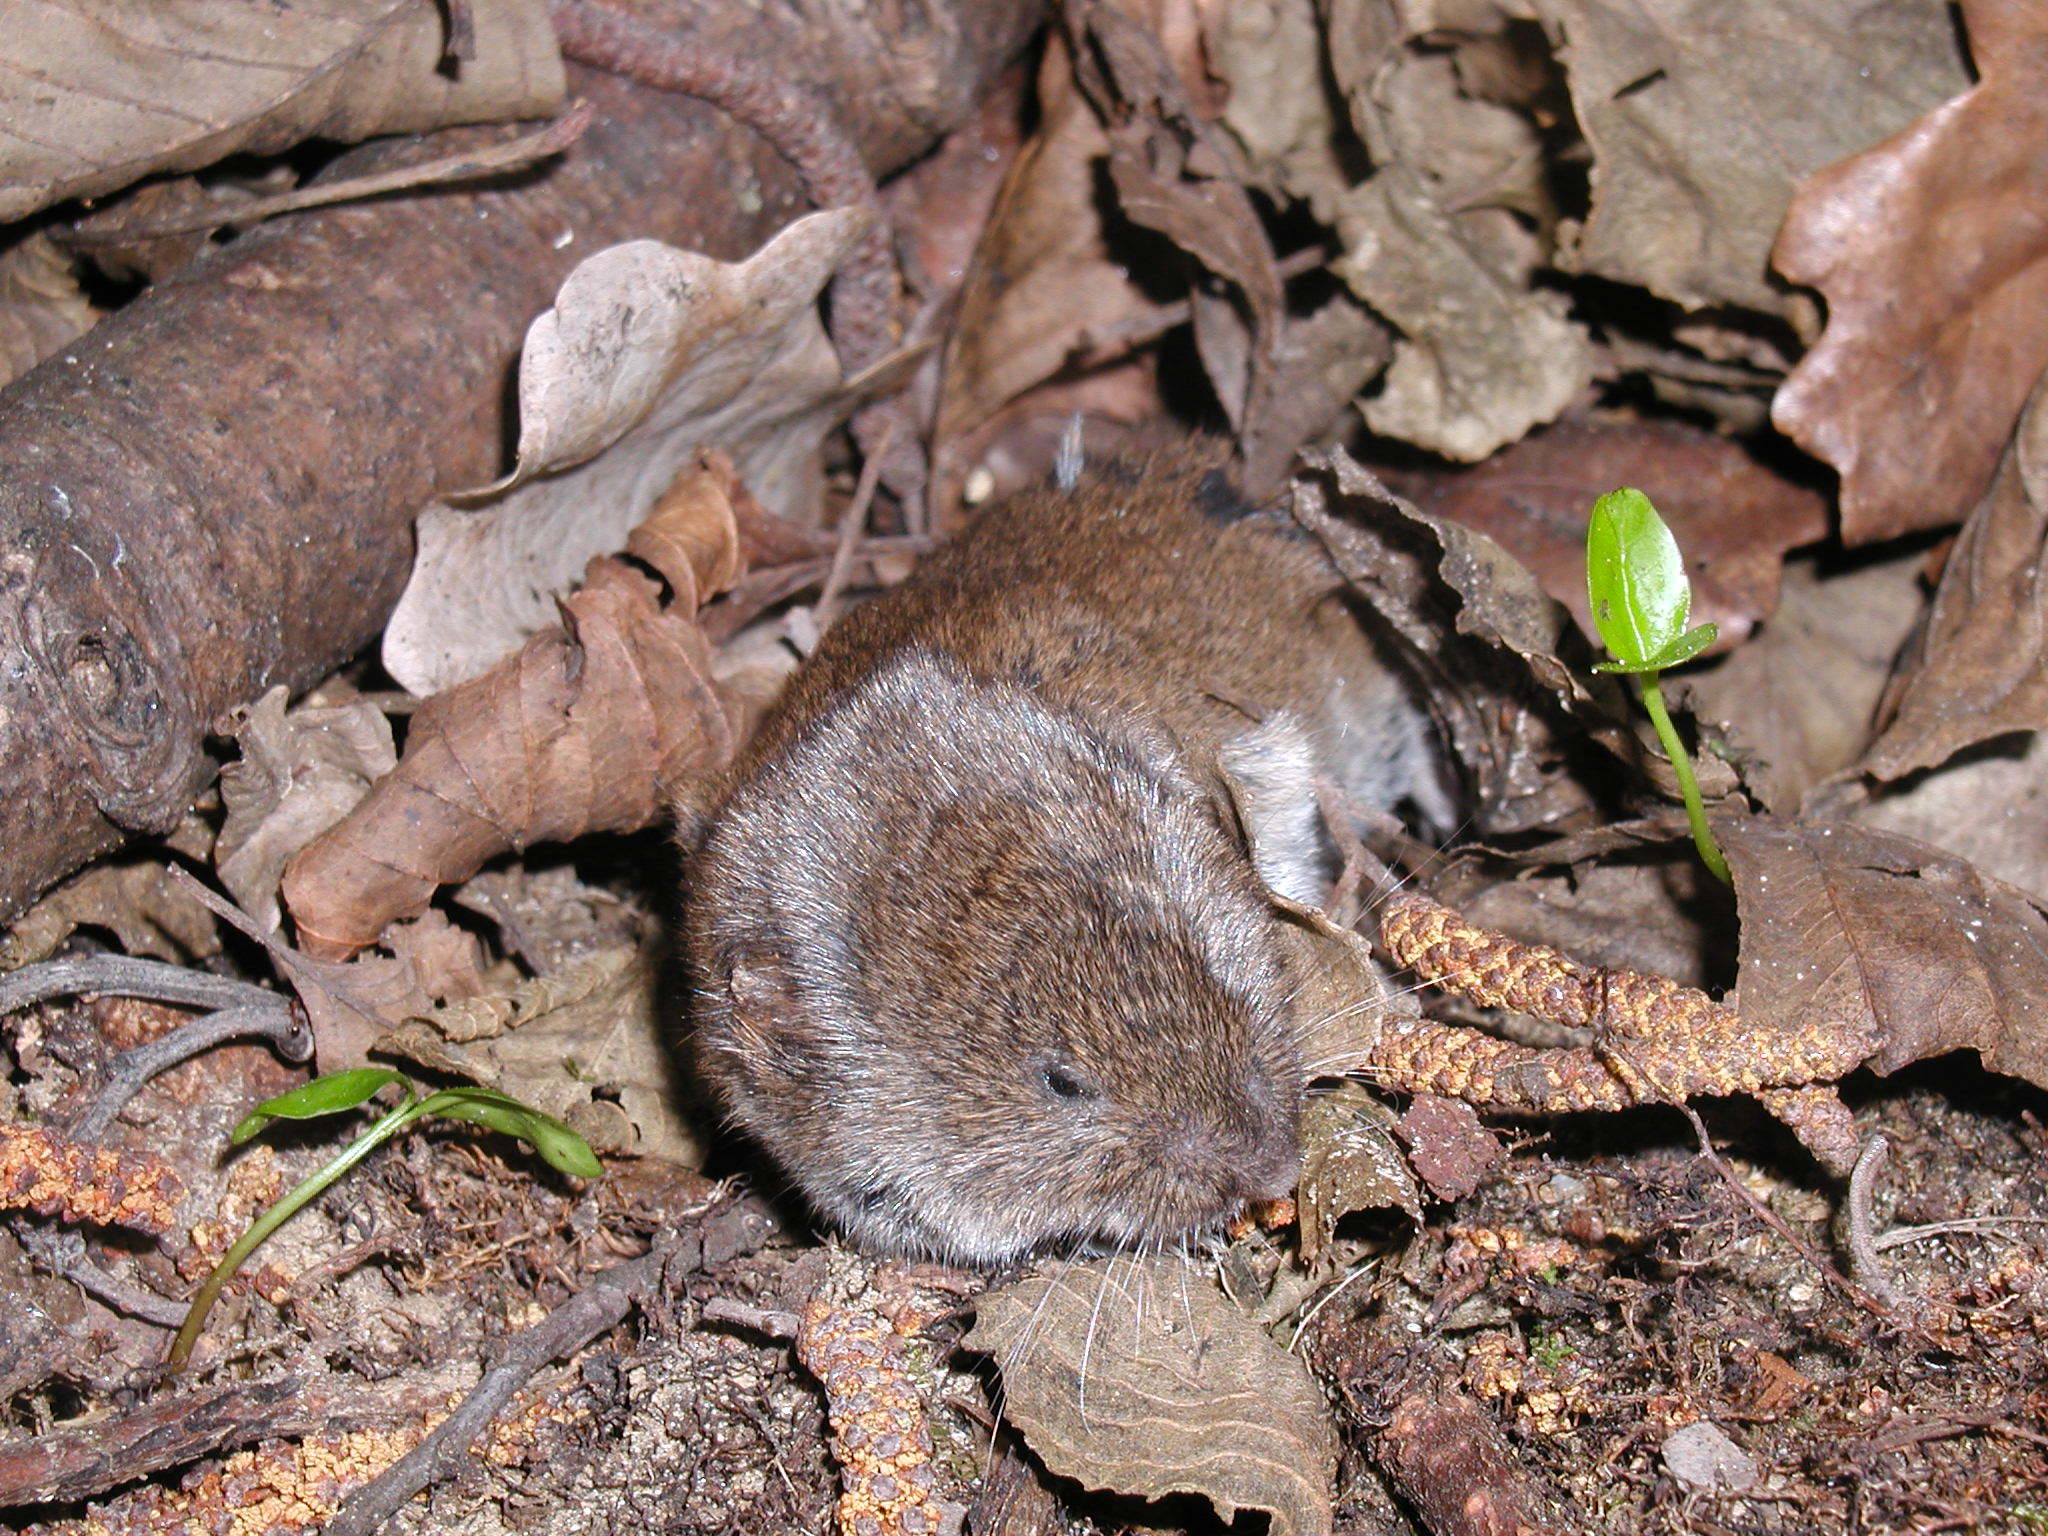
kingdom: Animalia
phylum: Chordata
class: Mammalia
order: Rodentia
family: Cricetidae
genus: Myodes
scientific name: Myodes glareolus
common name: Bank vole
